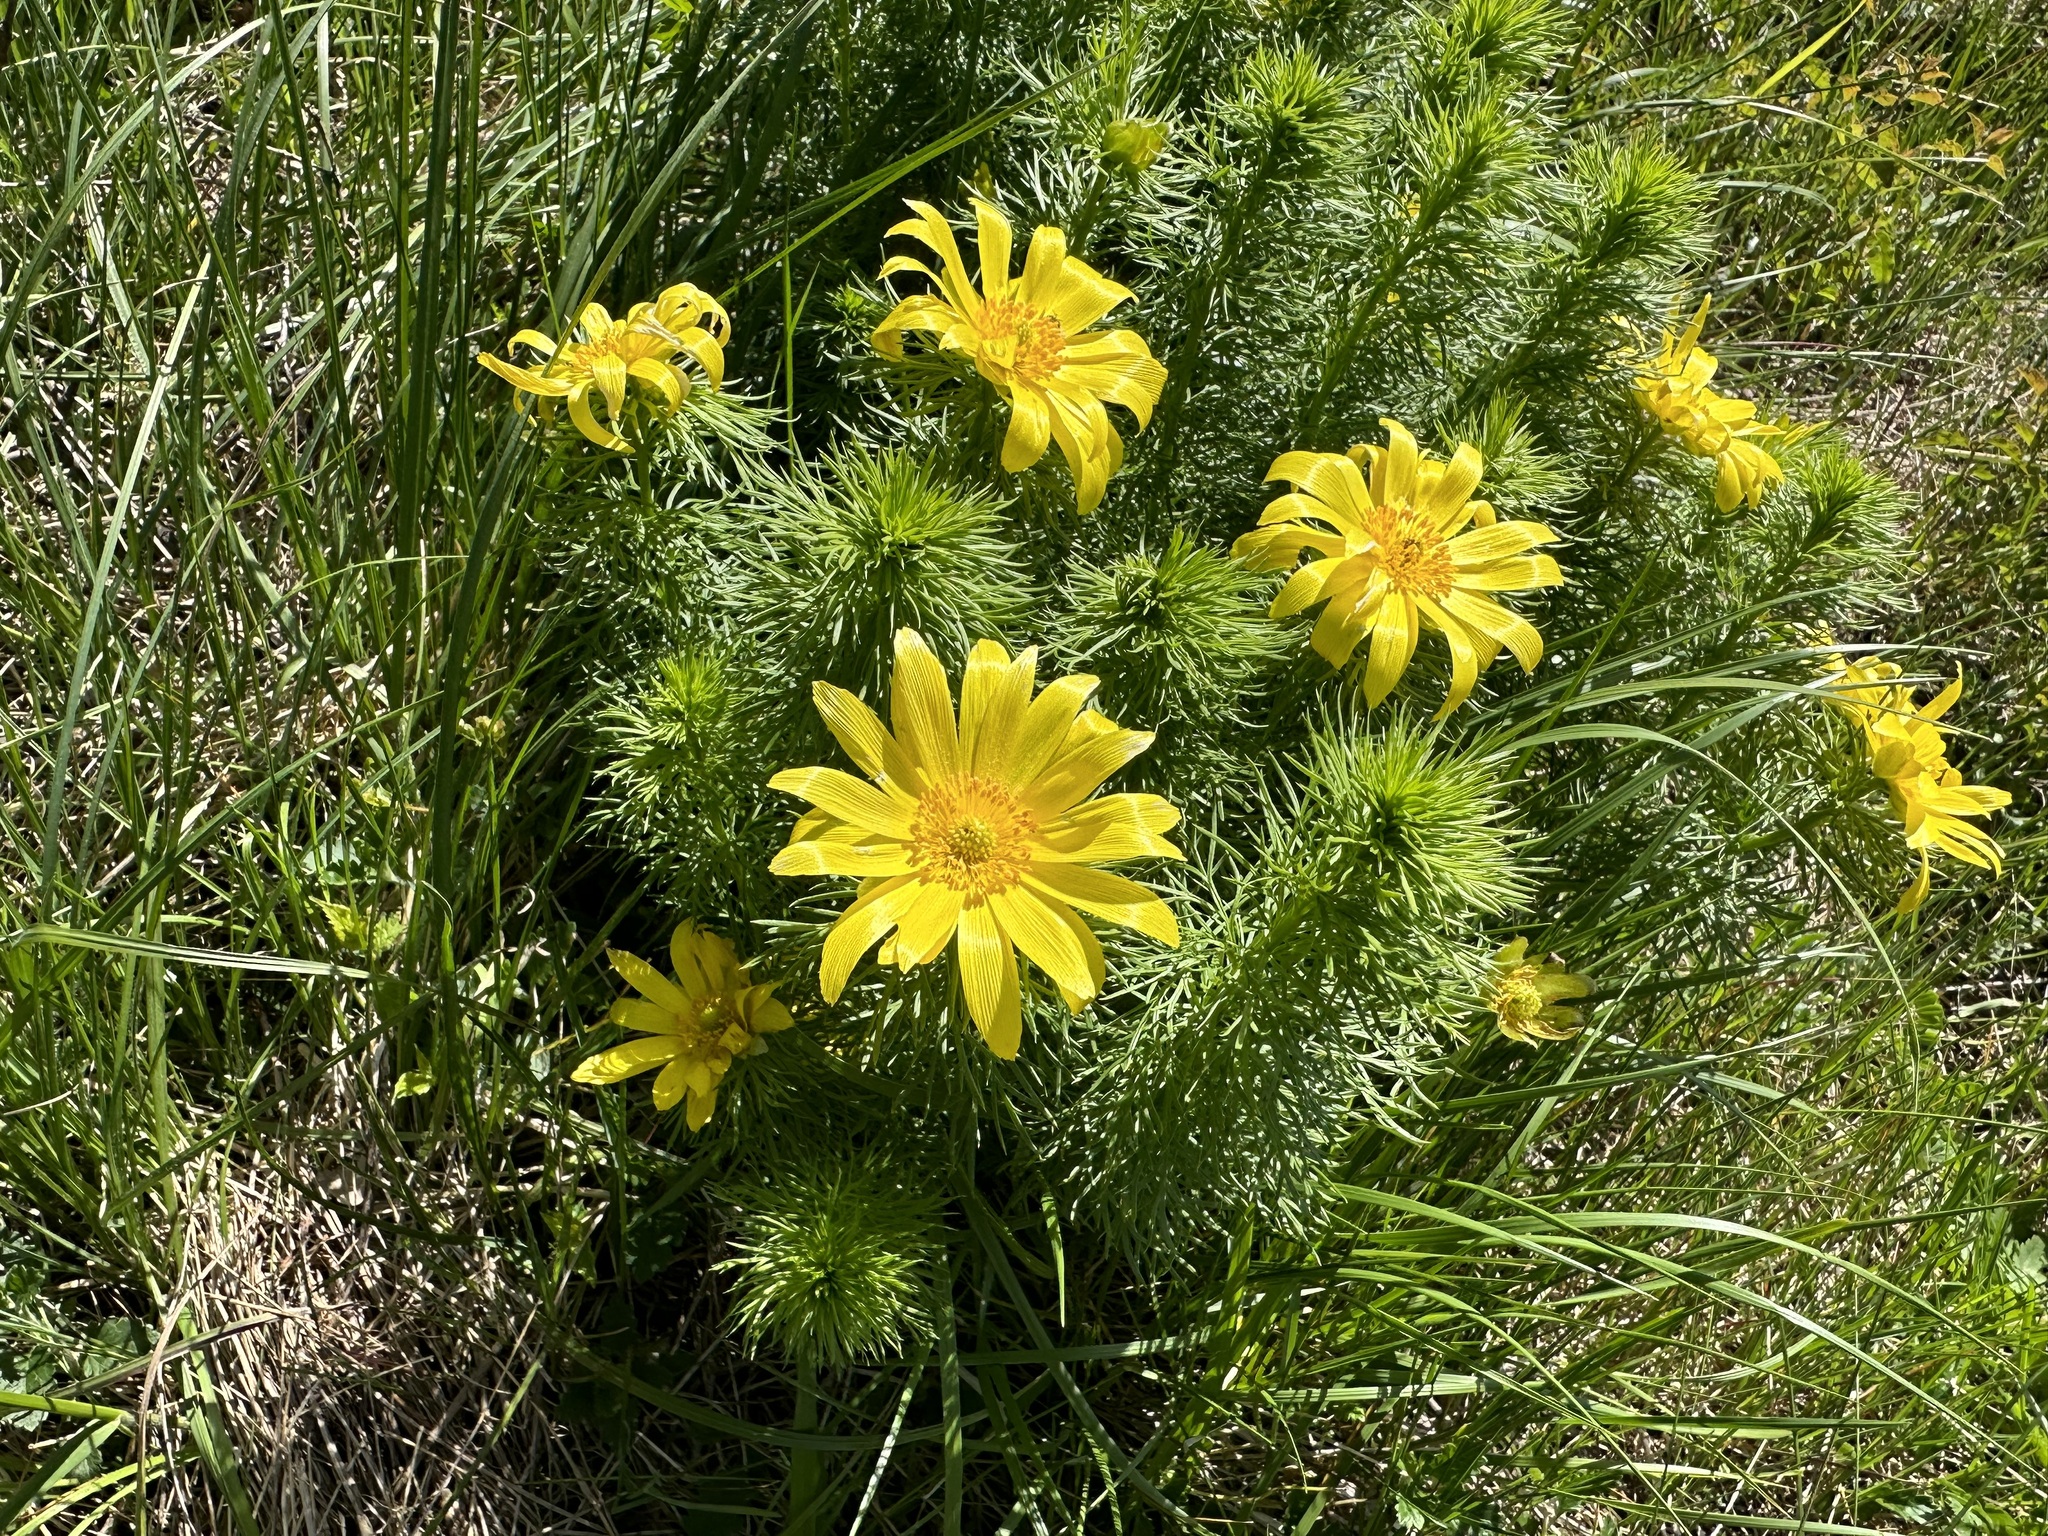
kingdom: Plantae
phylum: Tracheophyta
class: Magnoliopsida
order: Ranunculales
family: Ranunculaceae
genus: Adonis
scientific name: Adonis vernalis
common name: Yellow pheasants-eye
